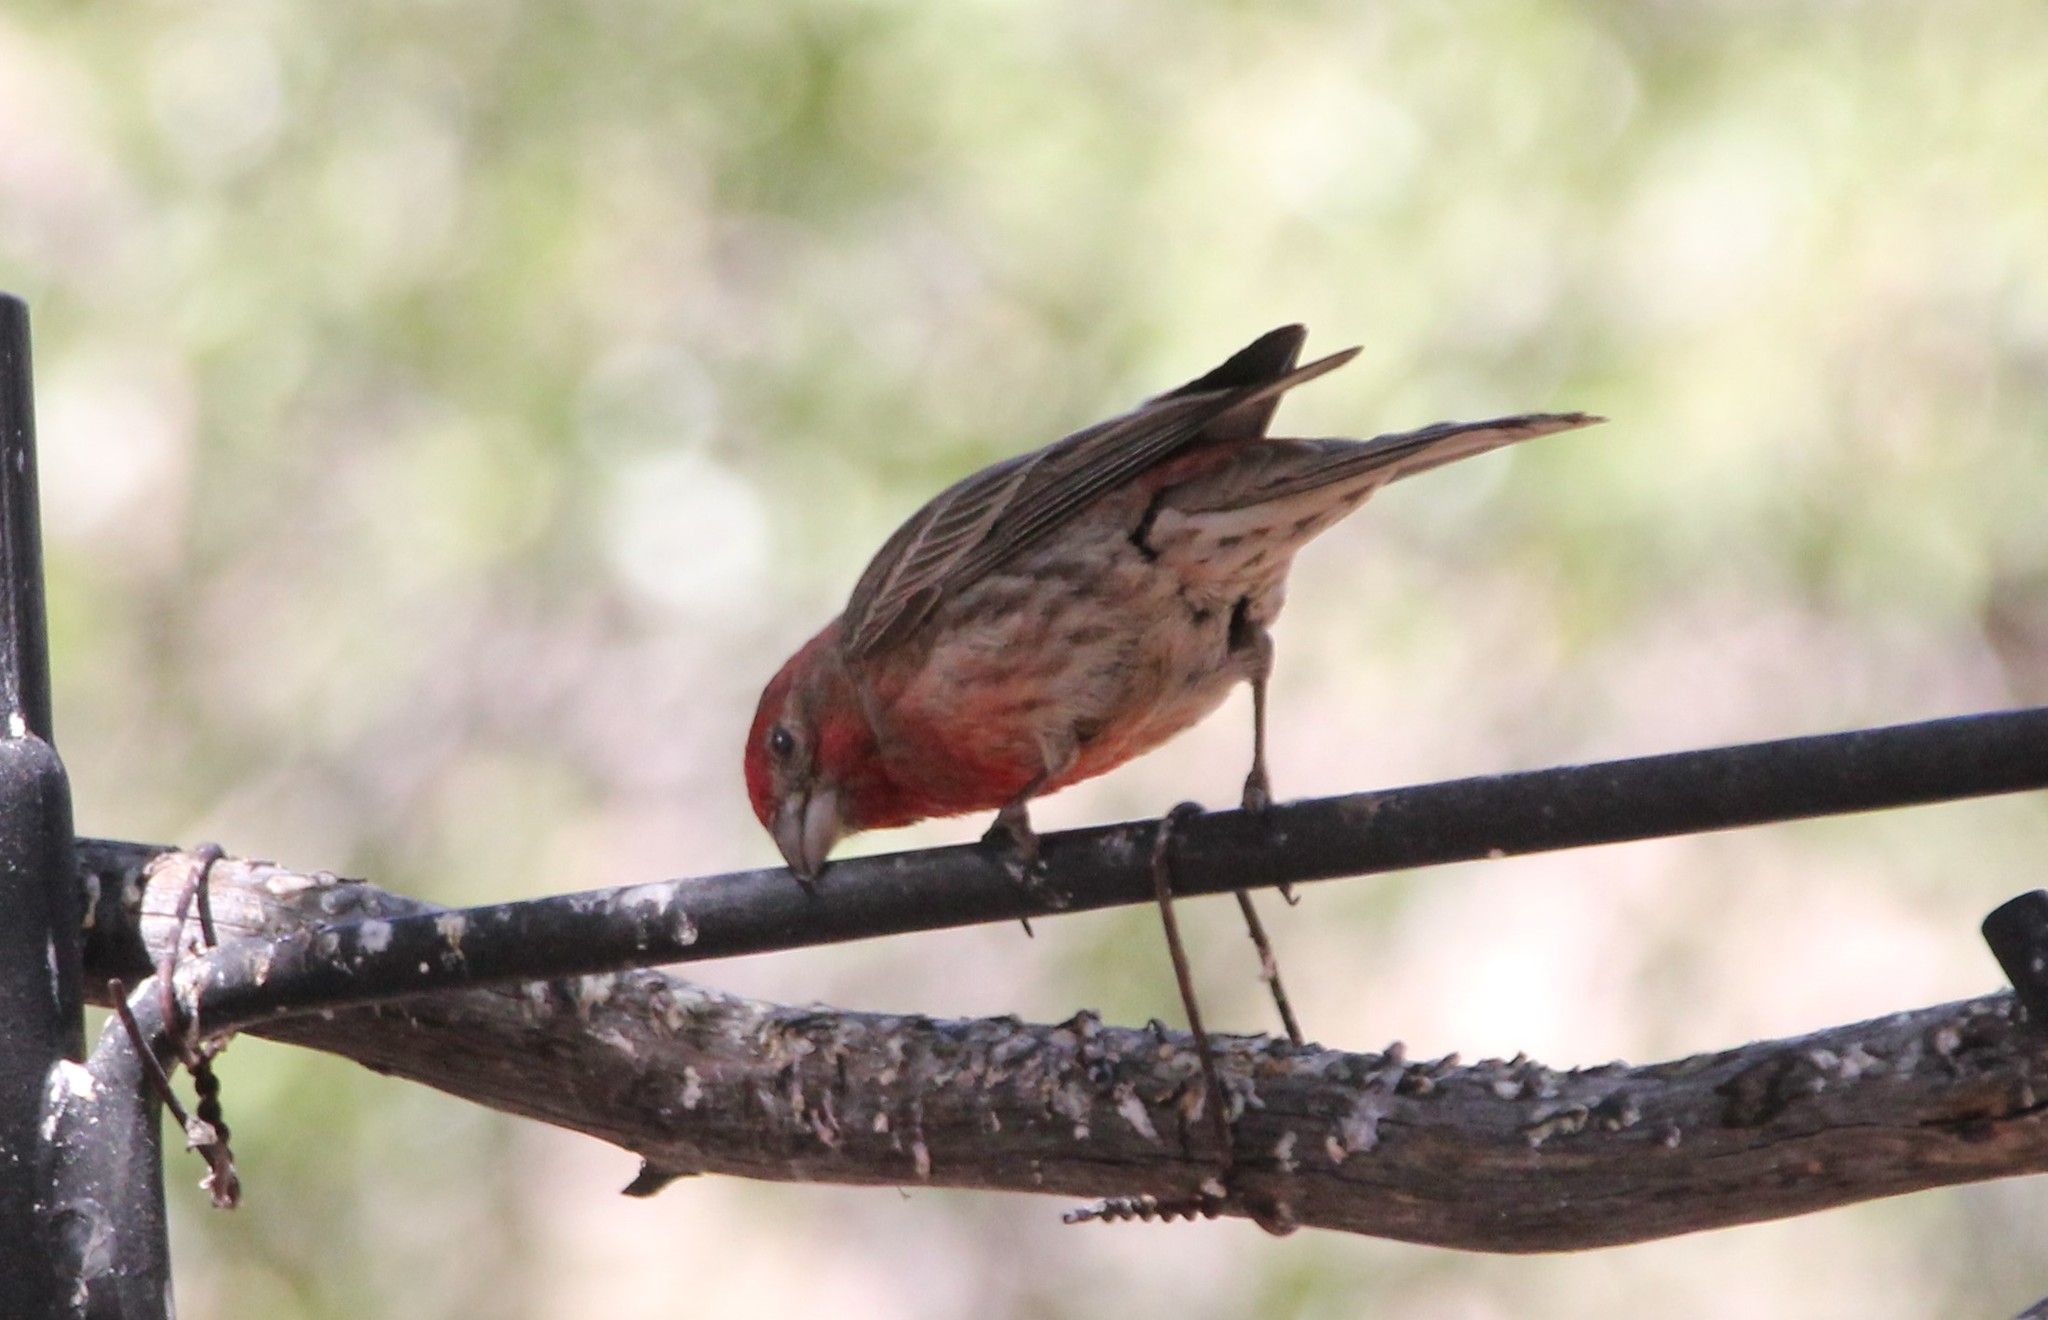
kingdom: Animalia
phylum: Chordata
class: Aves
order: Passeriformes
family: Fringillidae
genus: Haemorhous
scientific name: Haemorhous mexicanus
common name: House finch
